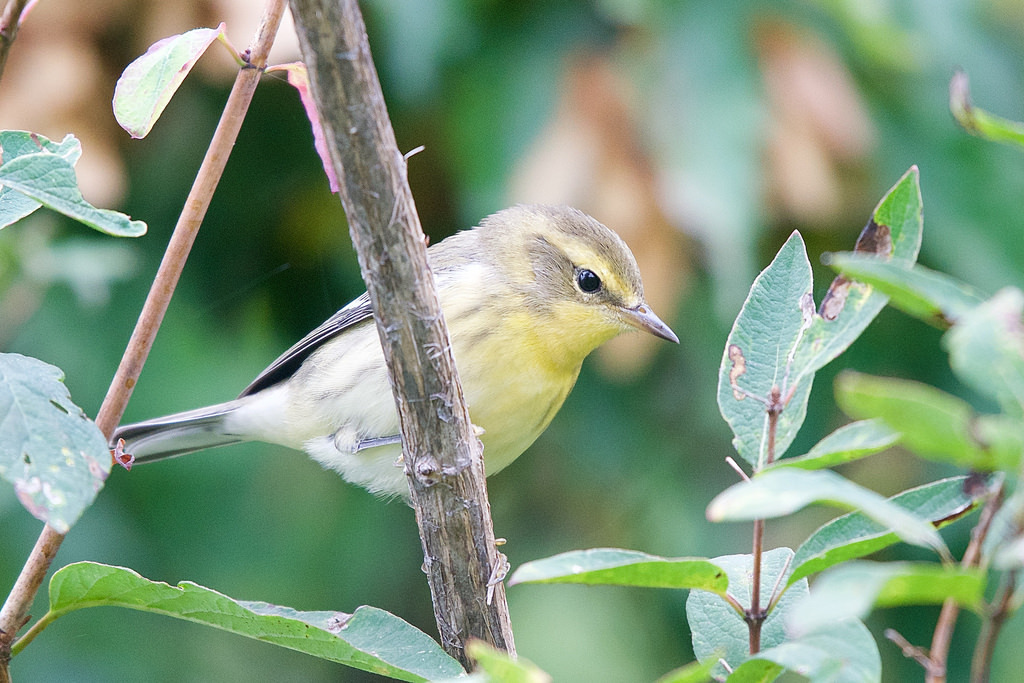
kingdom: Animalia
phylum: Chordata
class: Aves
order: Passeriformes
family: Parulidae
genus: Setophaga
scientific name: Setophaga fusca
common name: Blackburnian warbler
